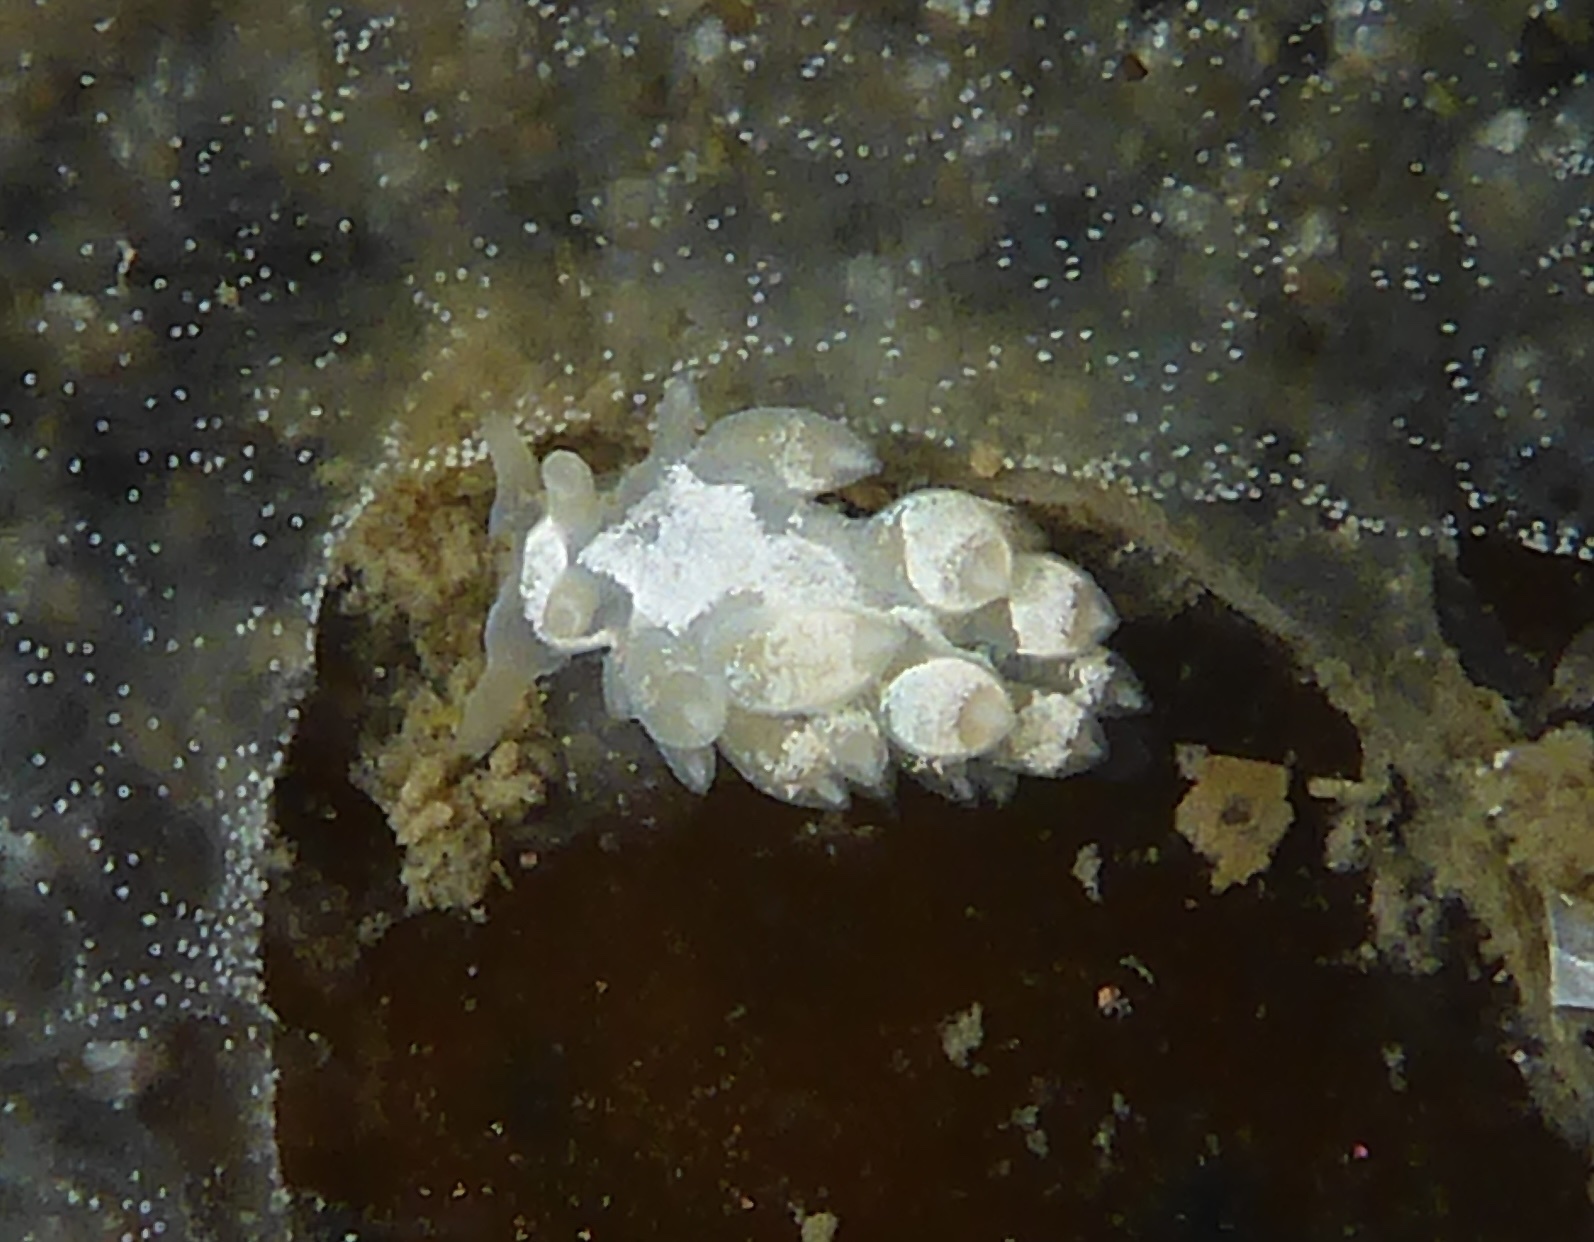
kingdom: Animalia
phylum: Mollusca
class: Gastropoda
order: Nudibranchia
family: Trinchesiidae
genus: Trinchesia
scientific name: Trinchesia albocrusta
